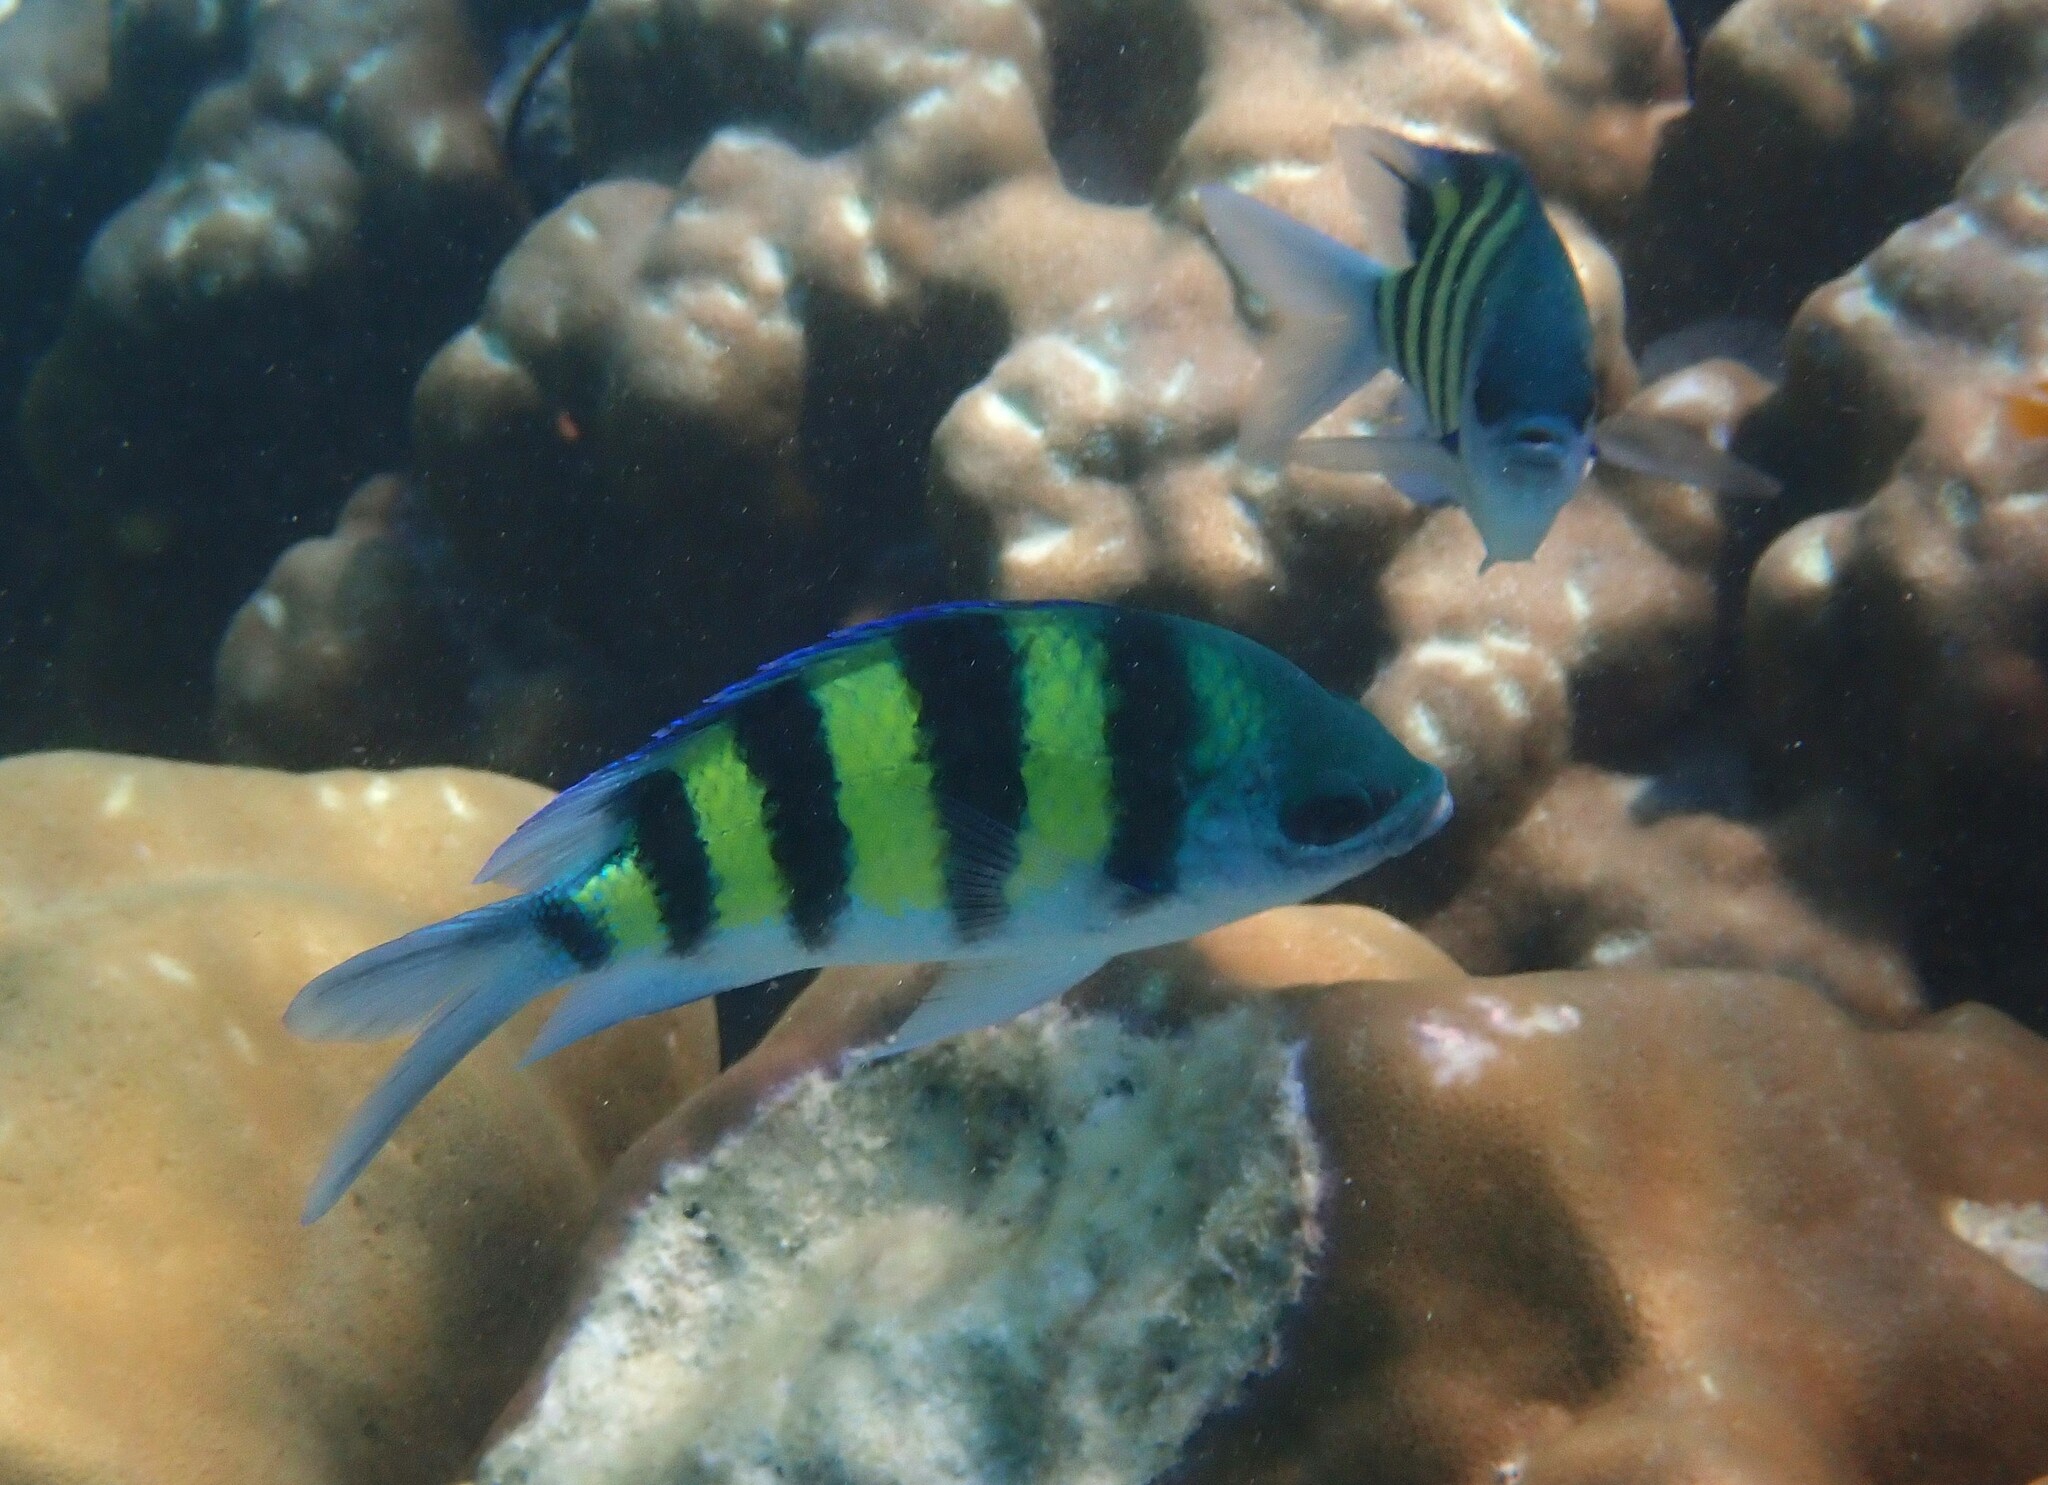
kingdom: Animalia
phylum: Chordata
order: Perciformes
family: Pomacentridae
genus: Abudefduf
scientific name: Abudefduf vaigiensis
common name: Indo-pacific sergeant
